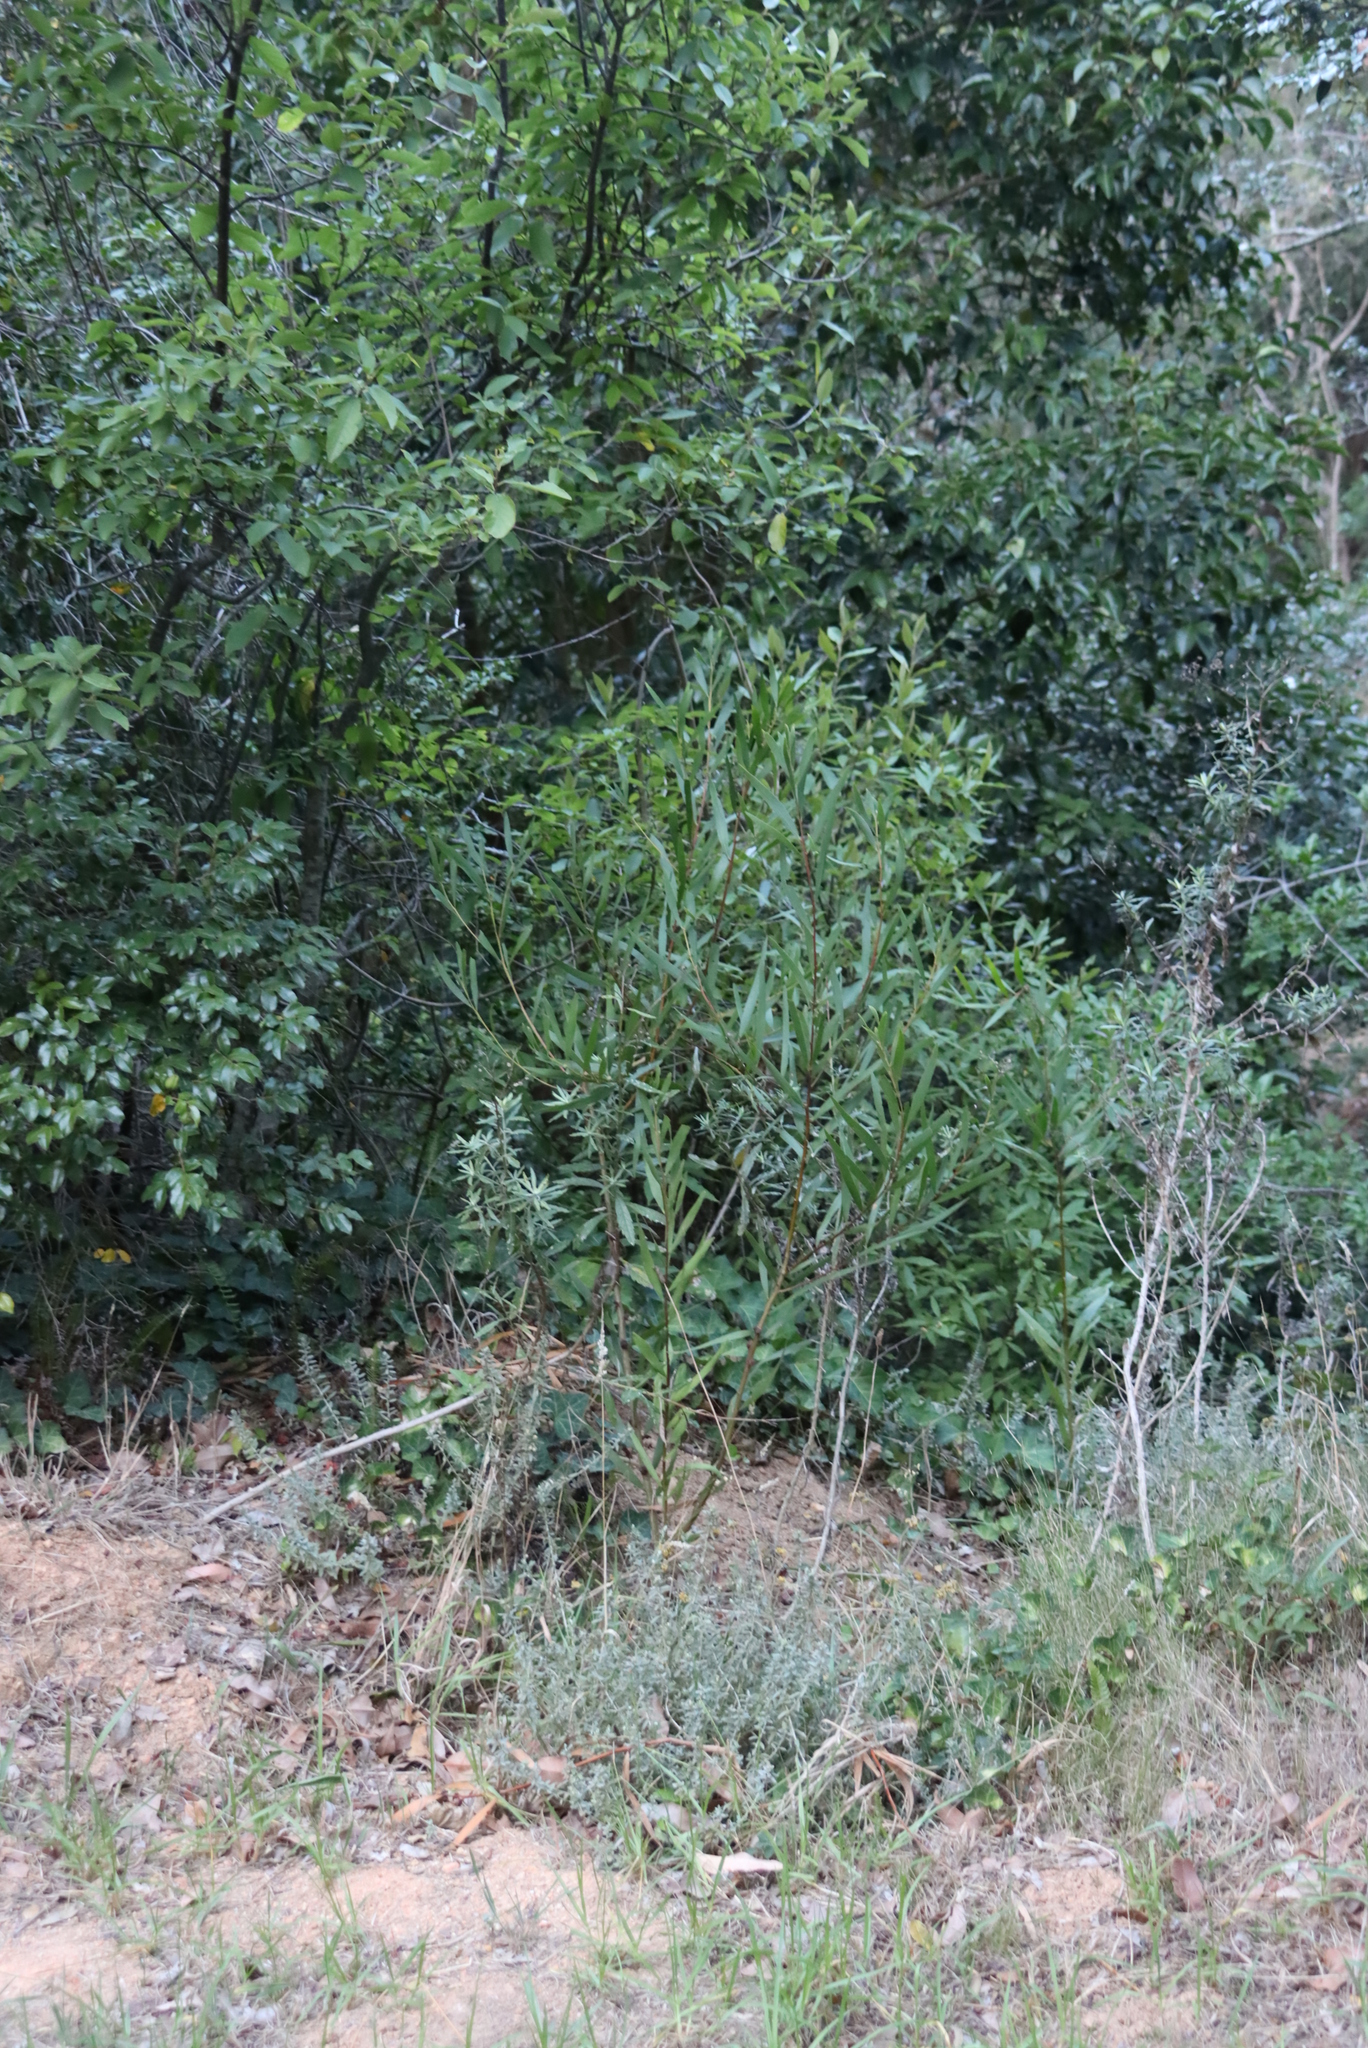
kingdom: Plantae
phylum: Tracheophyta
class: Magnoliopsida
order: Fabales
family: Fabaceae
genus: Acacia
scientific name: Acacia longifolia
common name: Sydney golden wattle
